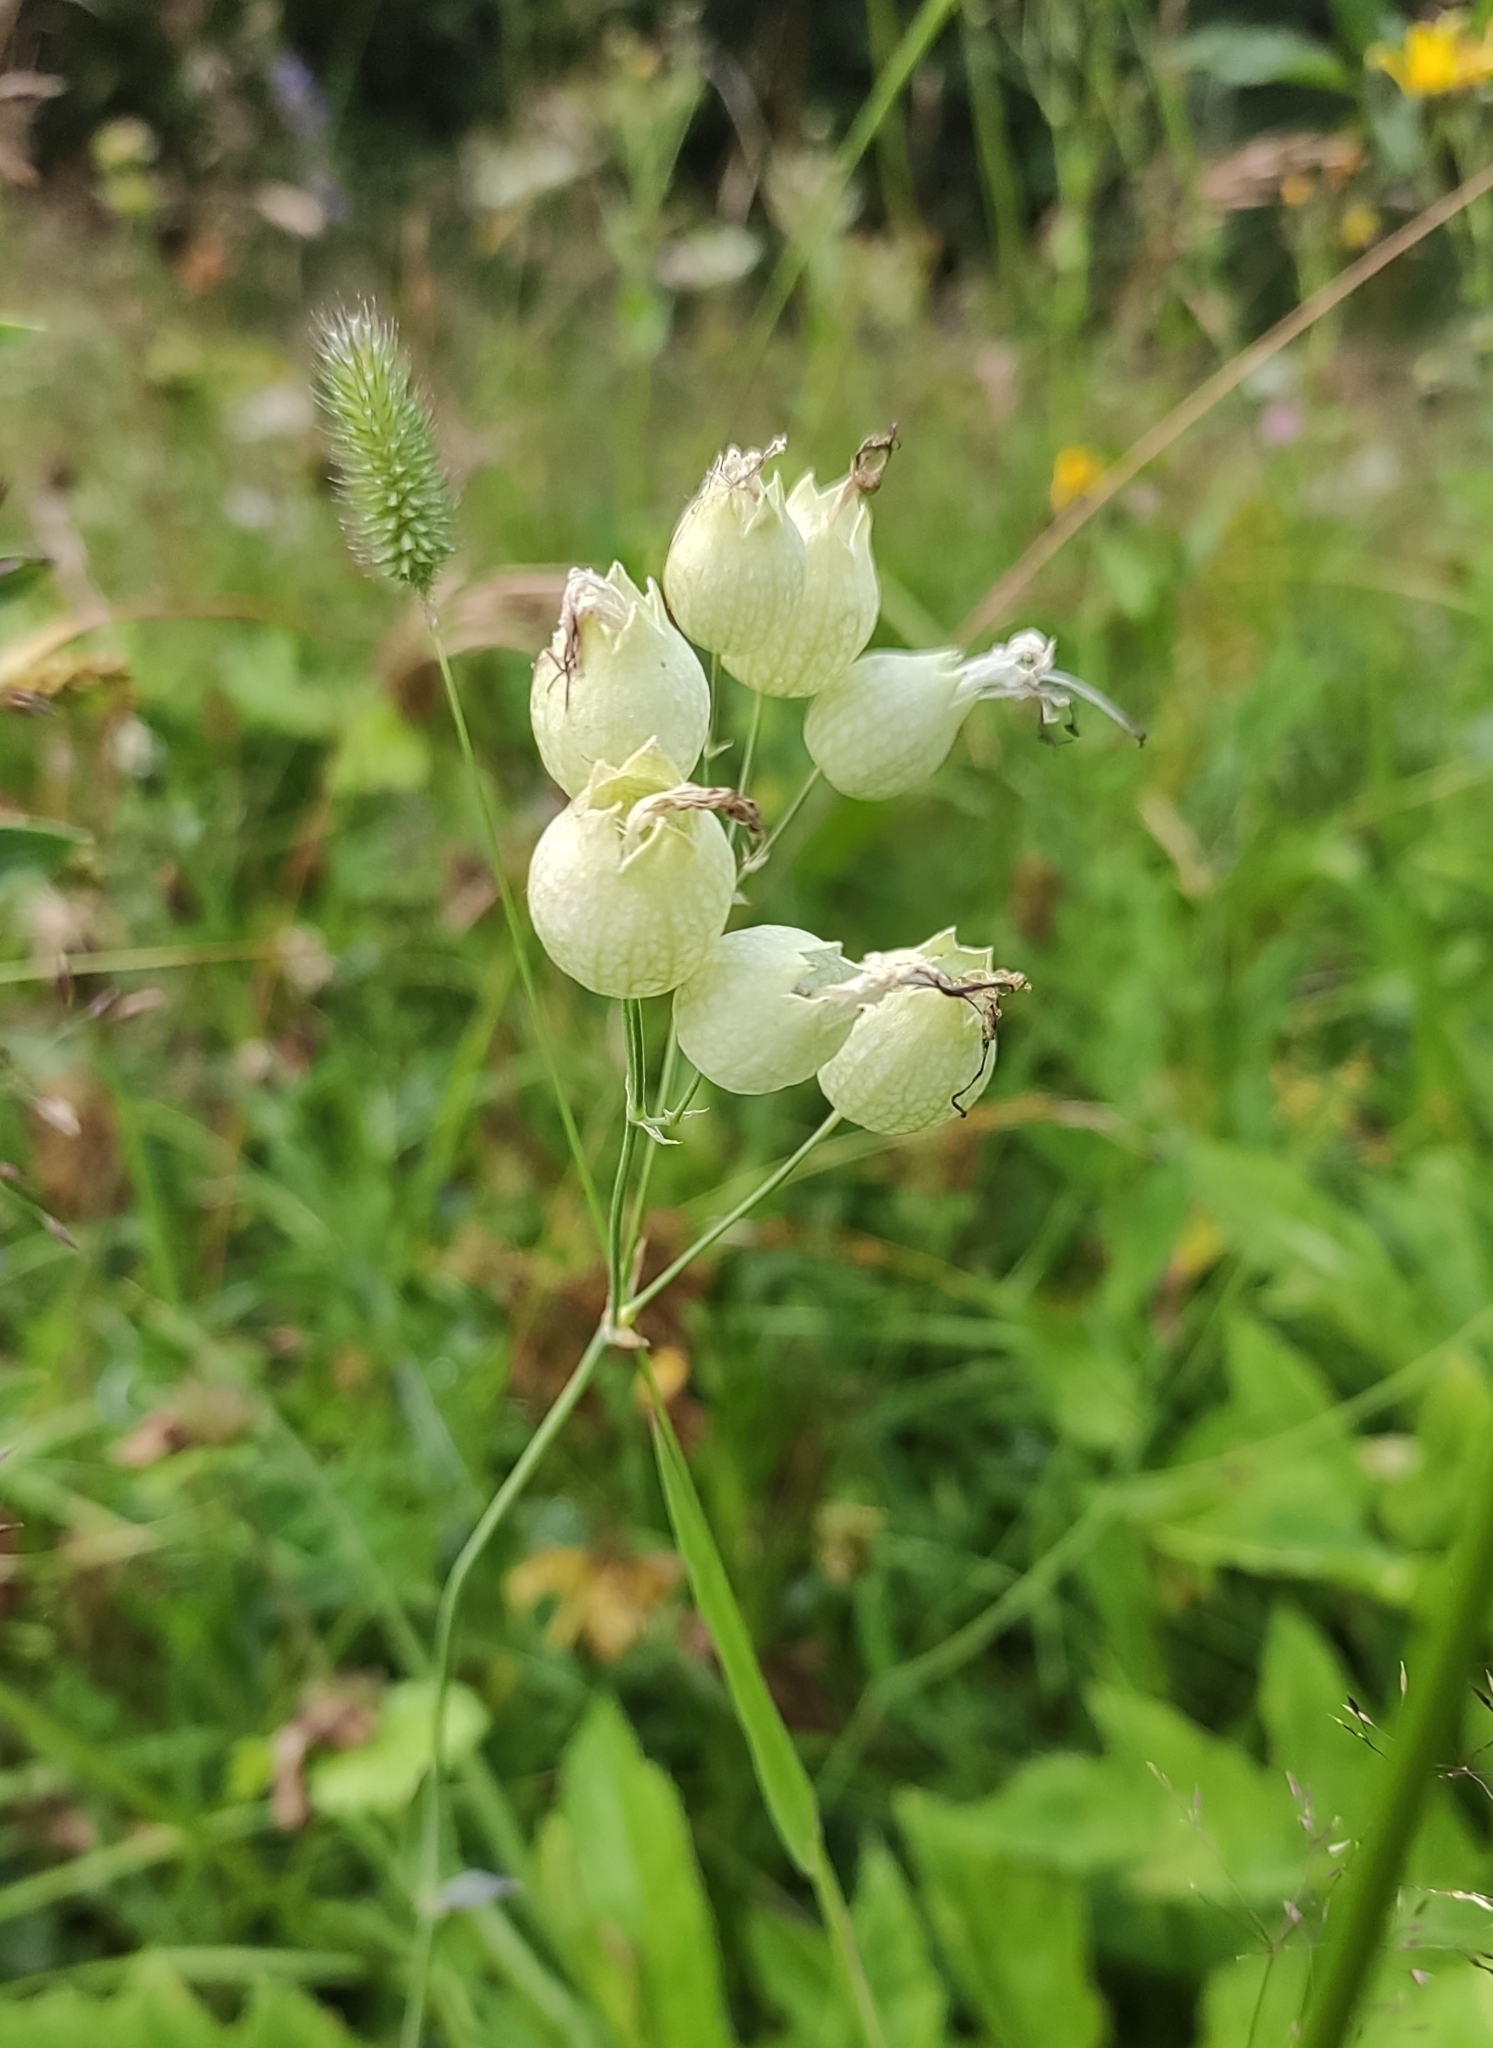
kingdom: Plantae
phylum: Tracheophyta
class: Magnoliopsida
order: Caryophyllales
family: Caryophyllaceae
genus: Silene
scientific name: Silene vulgaris
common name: Bladder campion
